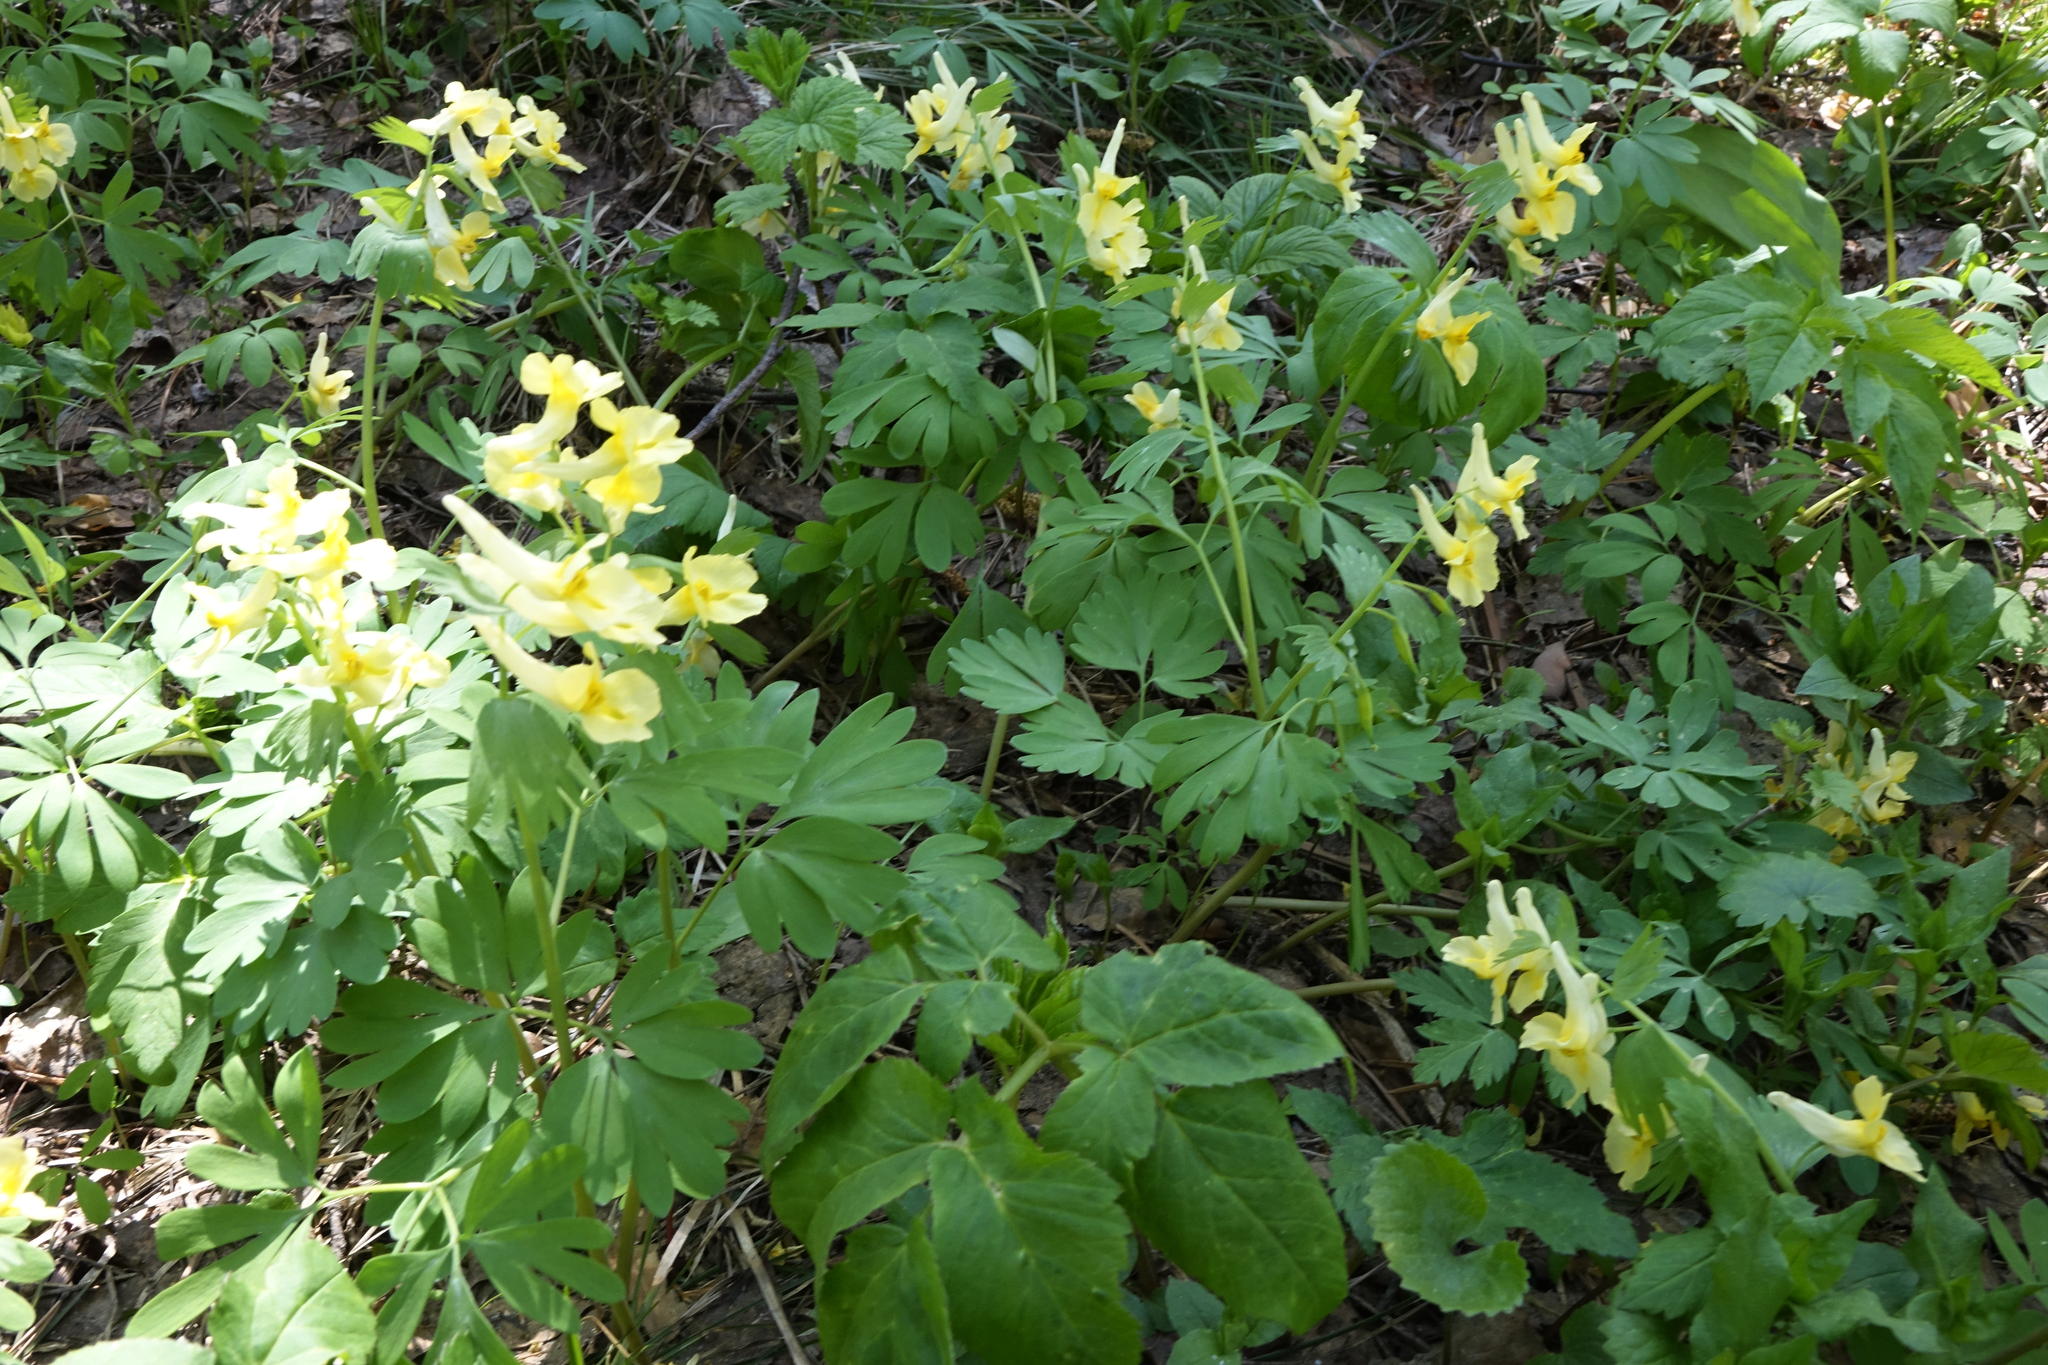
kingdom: Plantae
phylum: Tracheophyta
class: Magnoliopsida
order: Ranunculales
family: Papaveraceae
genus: Corydalis
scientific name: Corydalis bracteata
